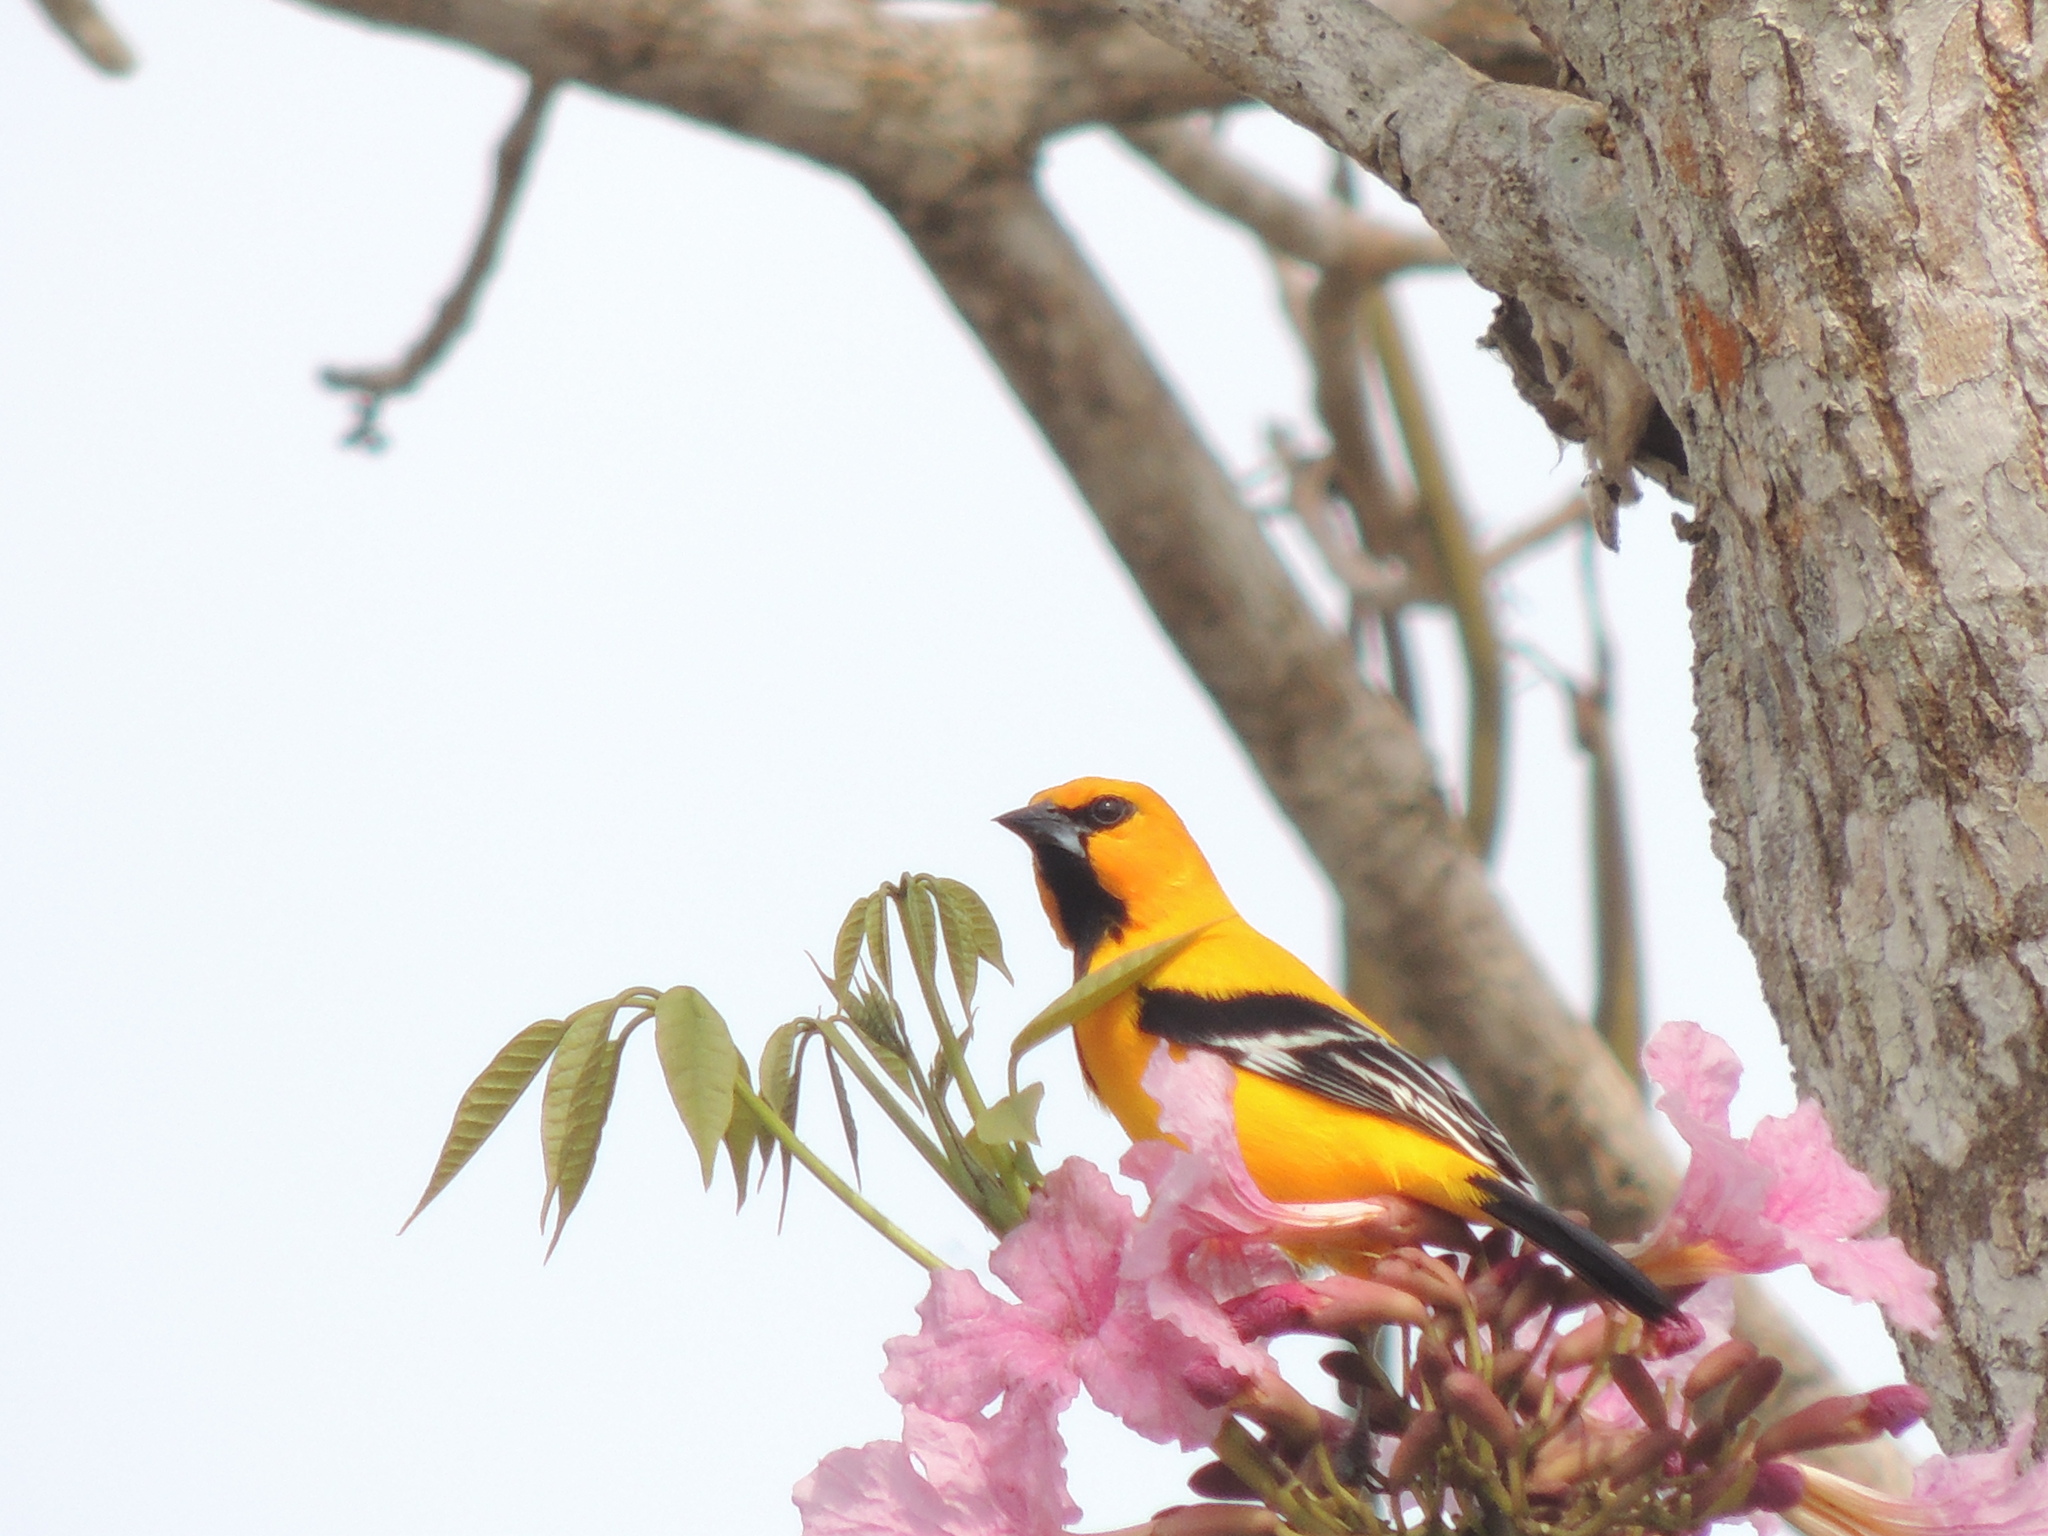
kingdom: Animalia
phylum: Chordata
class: Aves
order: Passeriformes
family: Icteridae
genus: Icterus
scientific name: Icterus nigrogularis
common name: Yellow oriole
